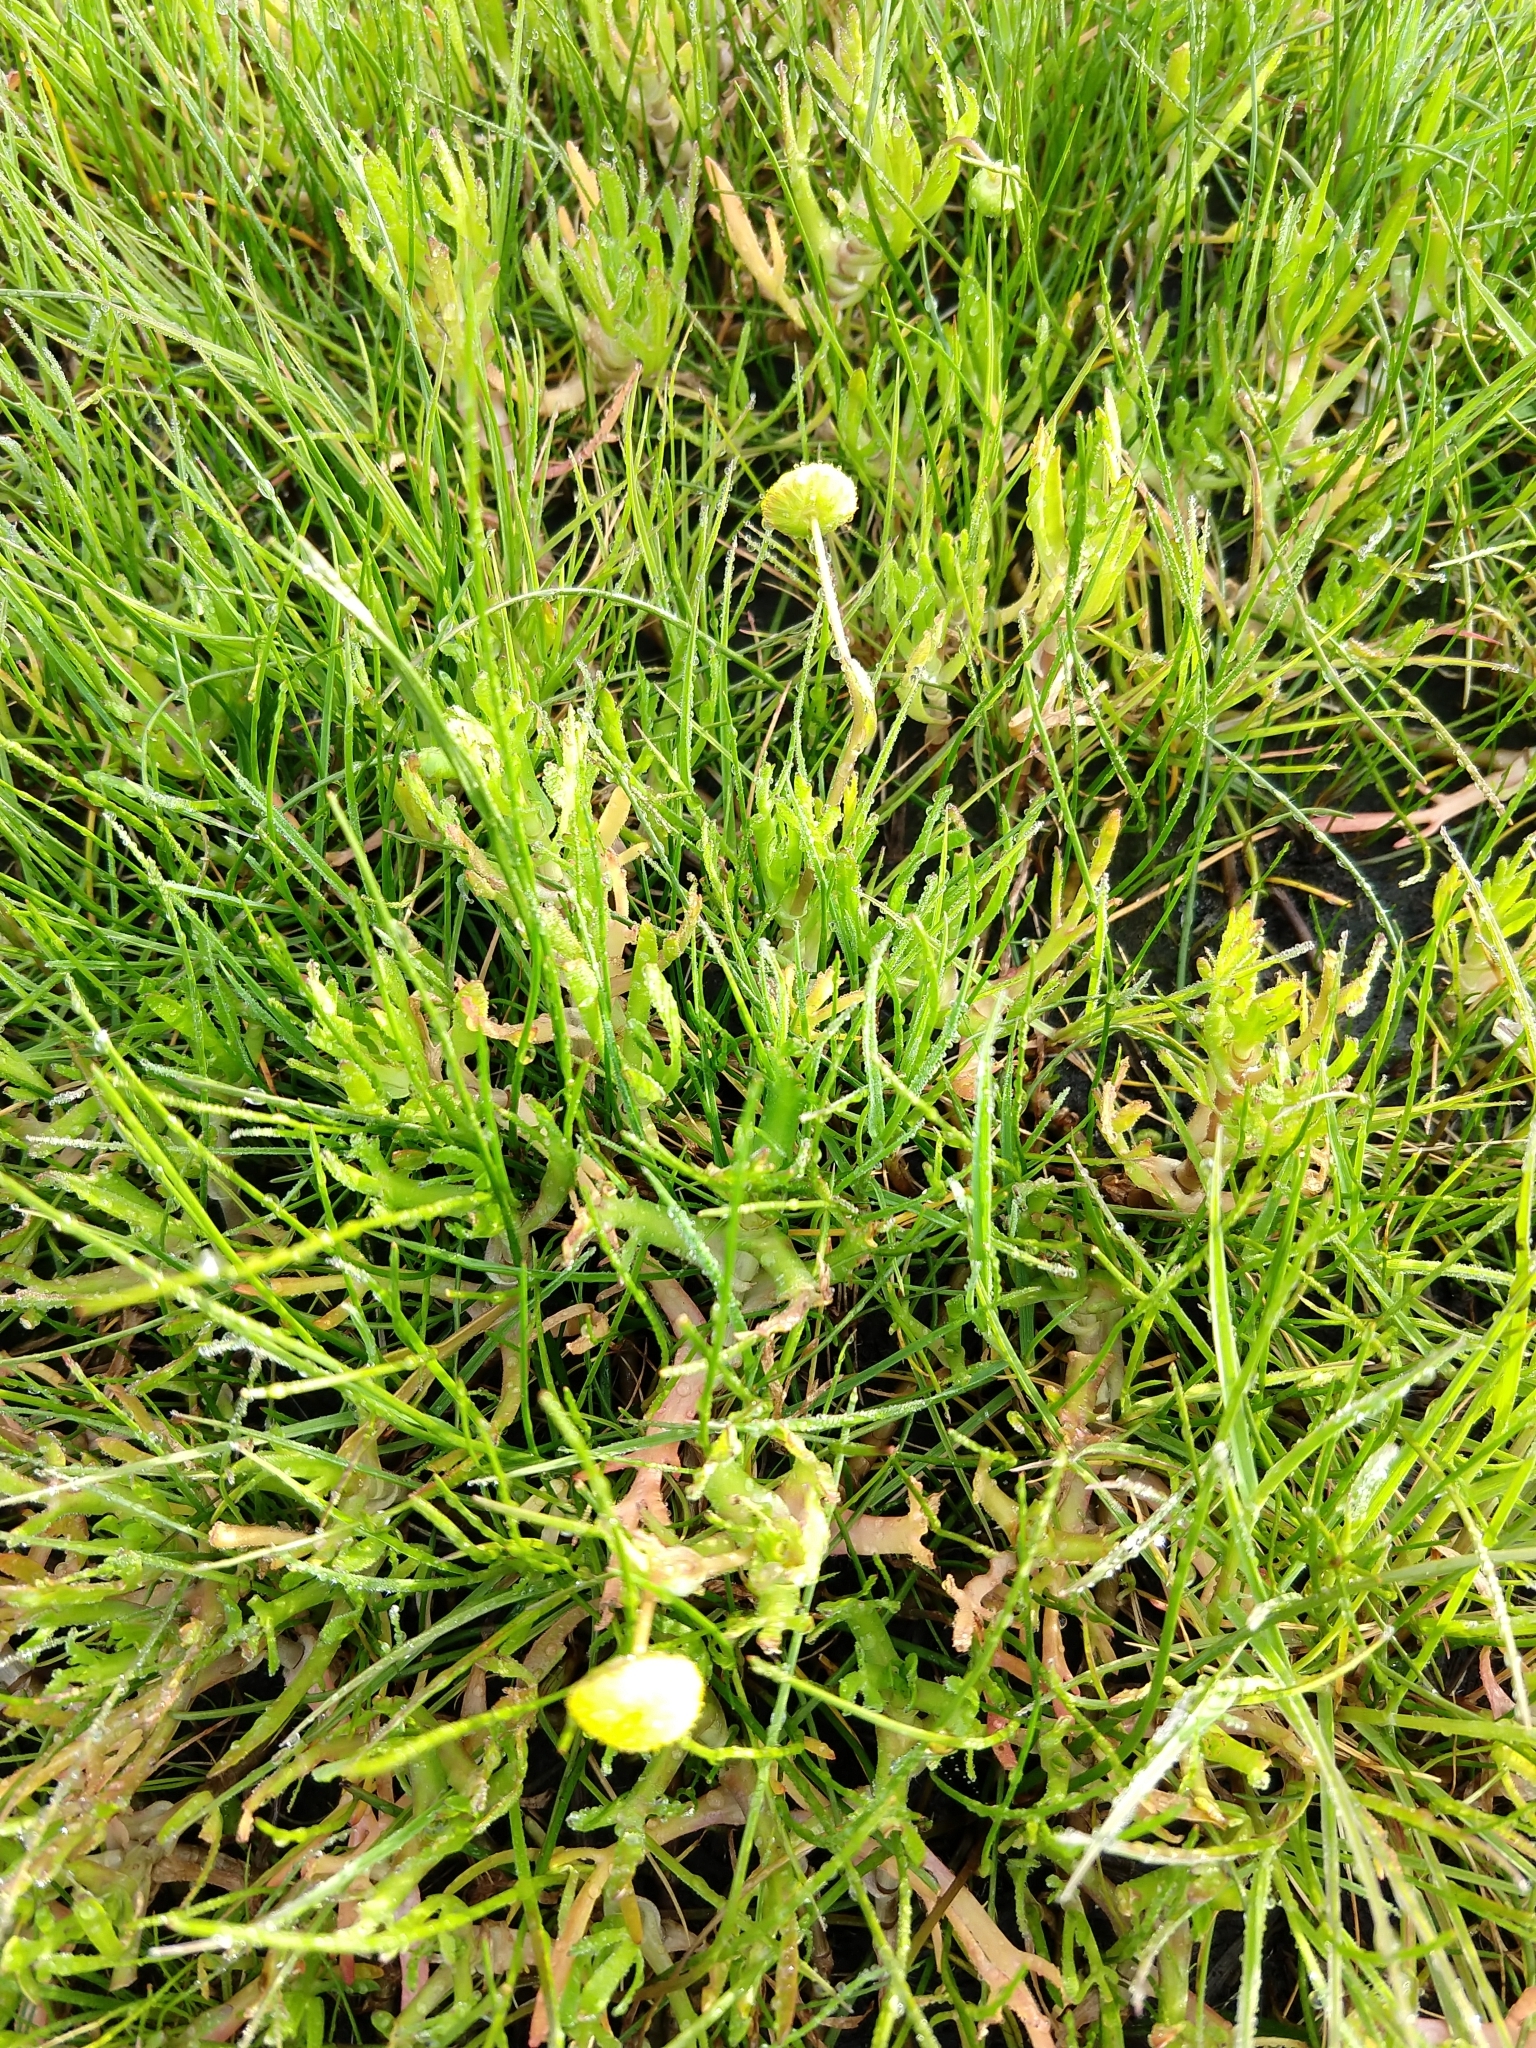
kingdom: Plantae
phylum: Tracheophyta
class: Magnoliopsida
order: Asterales
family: Asteraceae
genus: Cotula
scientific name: Cotula coronopifolia
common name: Buttonweed
